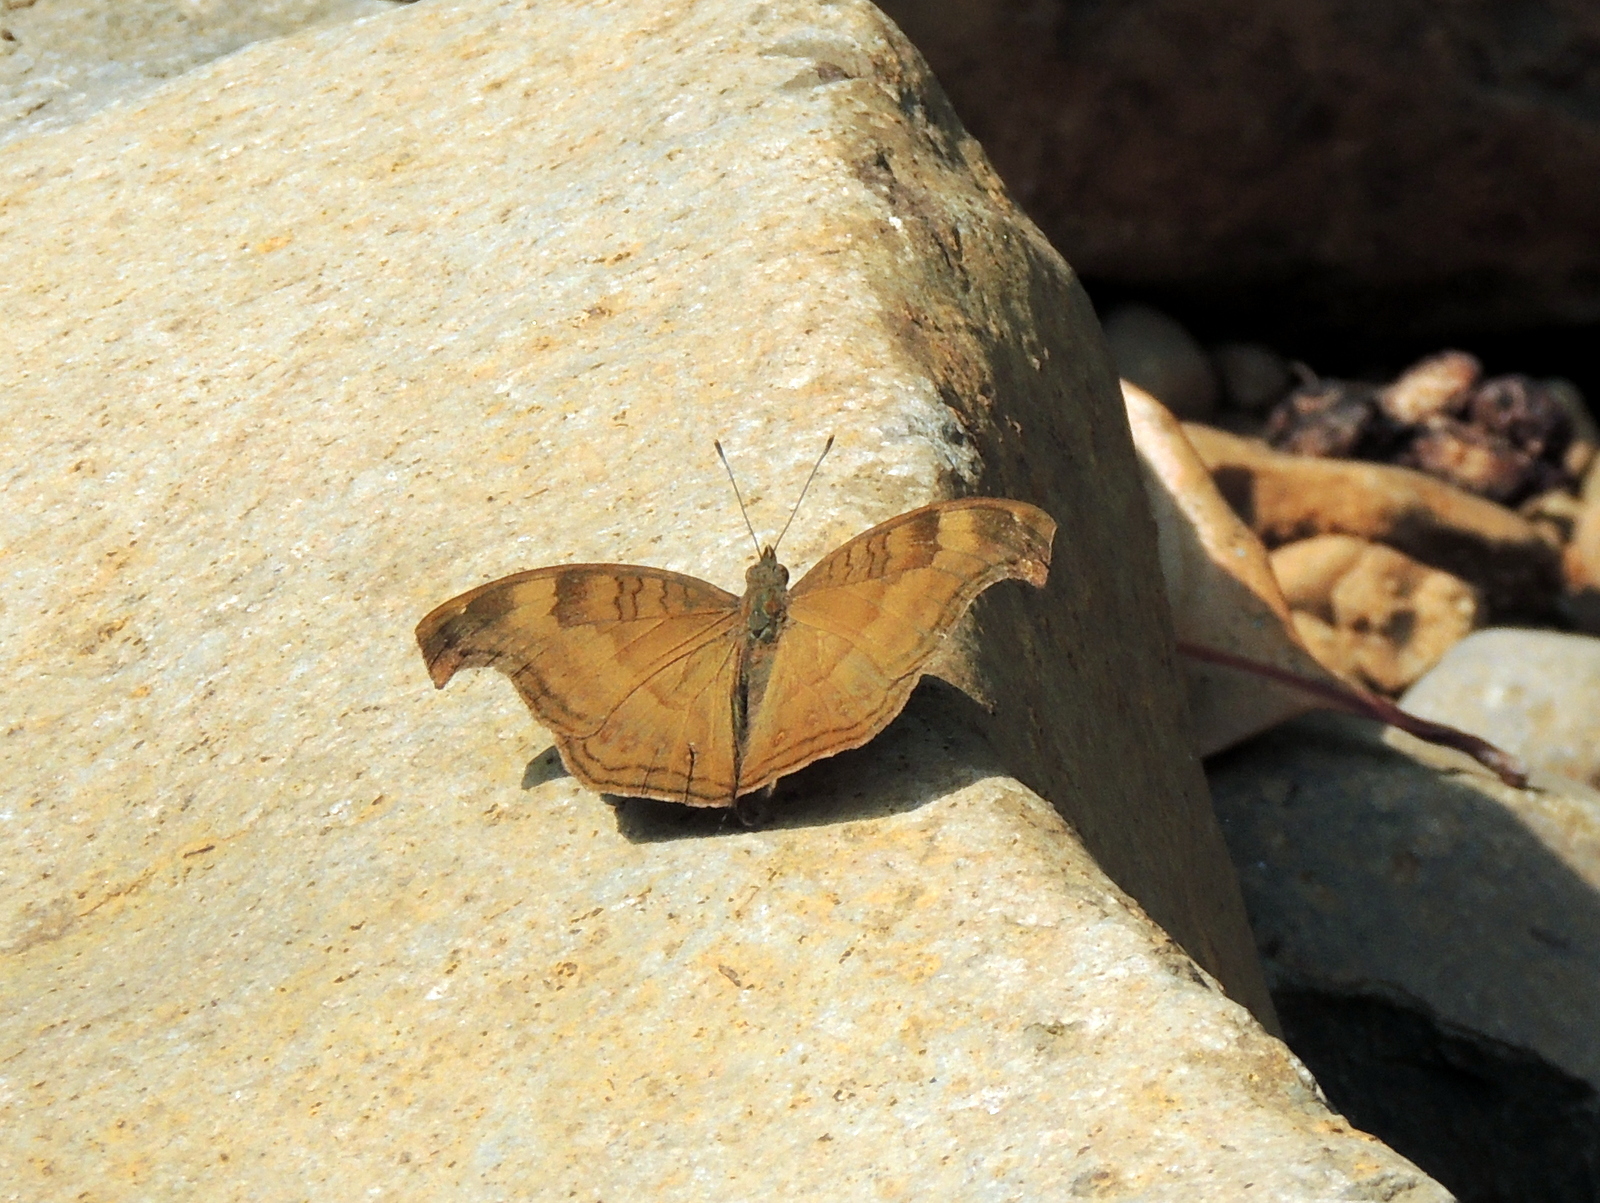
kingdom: Animalia
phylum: Arthropoda
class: Insecta
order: Lepidoptera
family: Nymphalidae
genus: Junonia
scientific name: Junonia iphita
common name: Chocolate pansy
